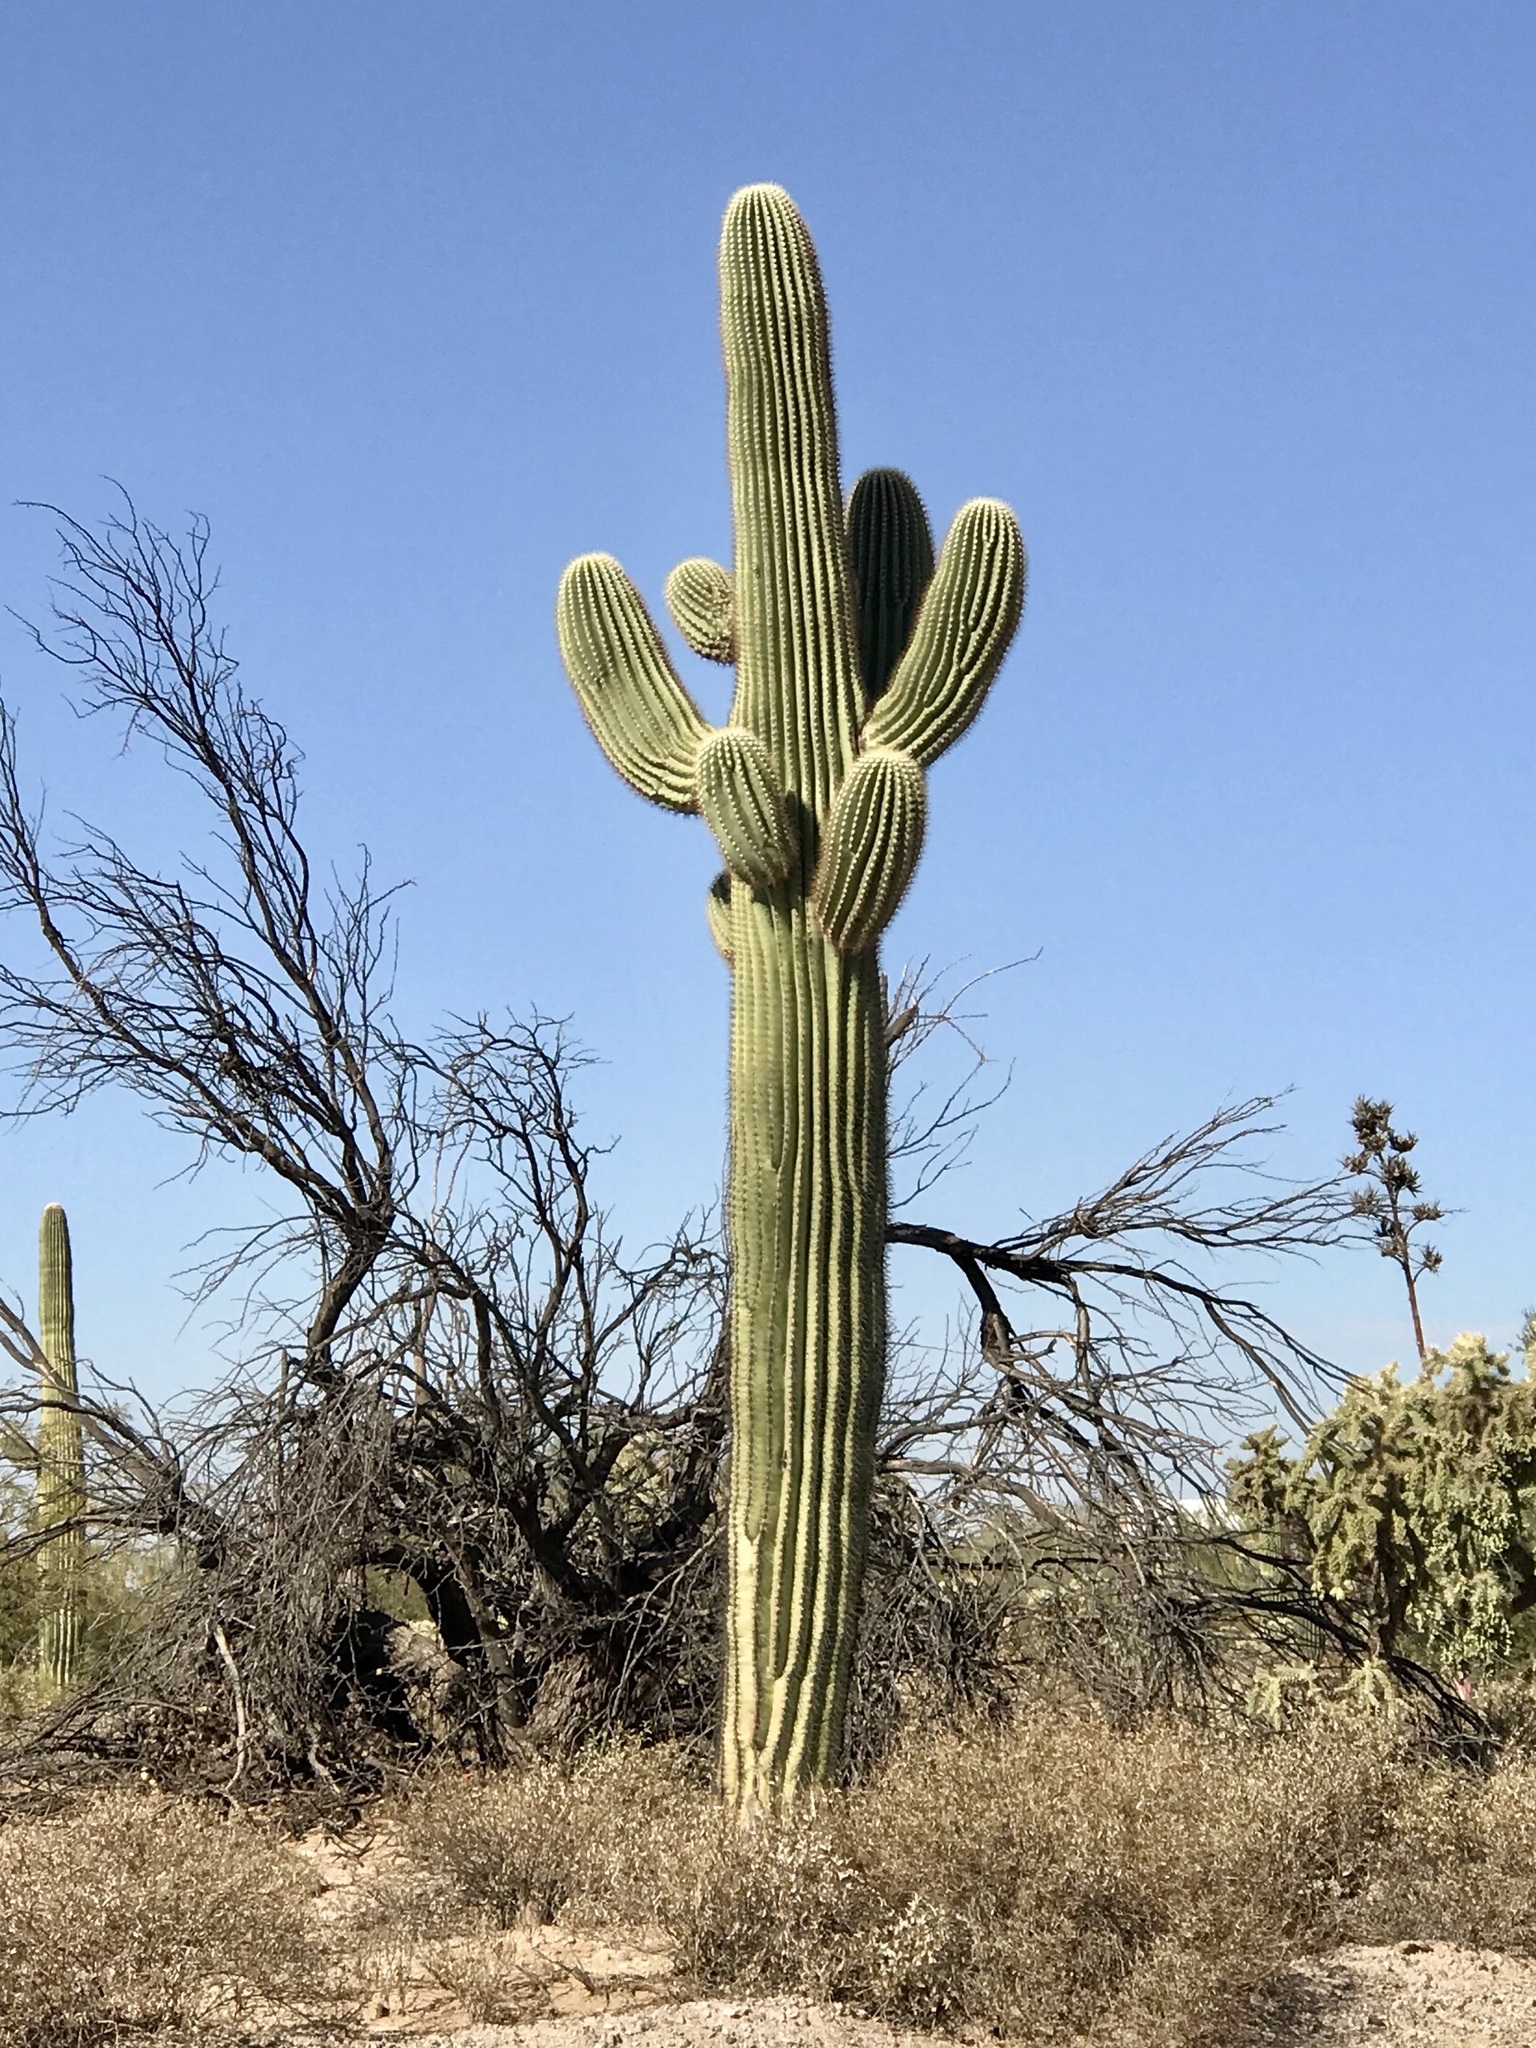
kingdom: Plantae
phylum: Tracheophyta
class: Magnoliopsida
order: Caryophyllales
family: Cactaceae
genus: Carnegiea
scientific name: Carnegiea gigantea
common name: Saguaro
